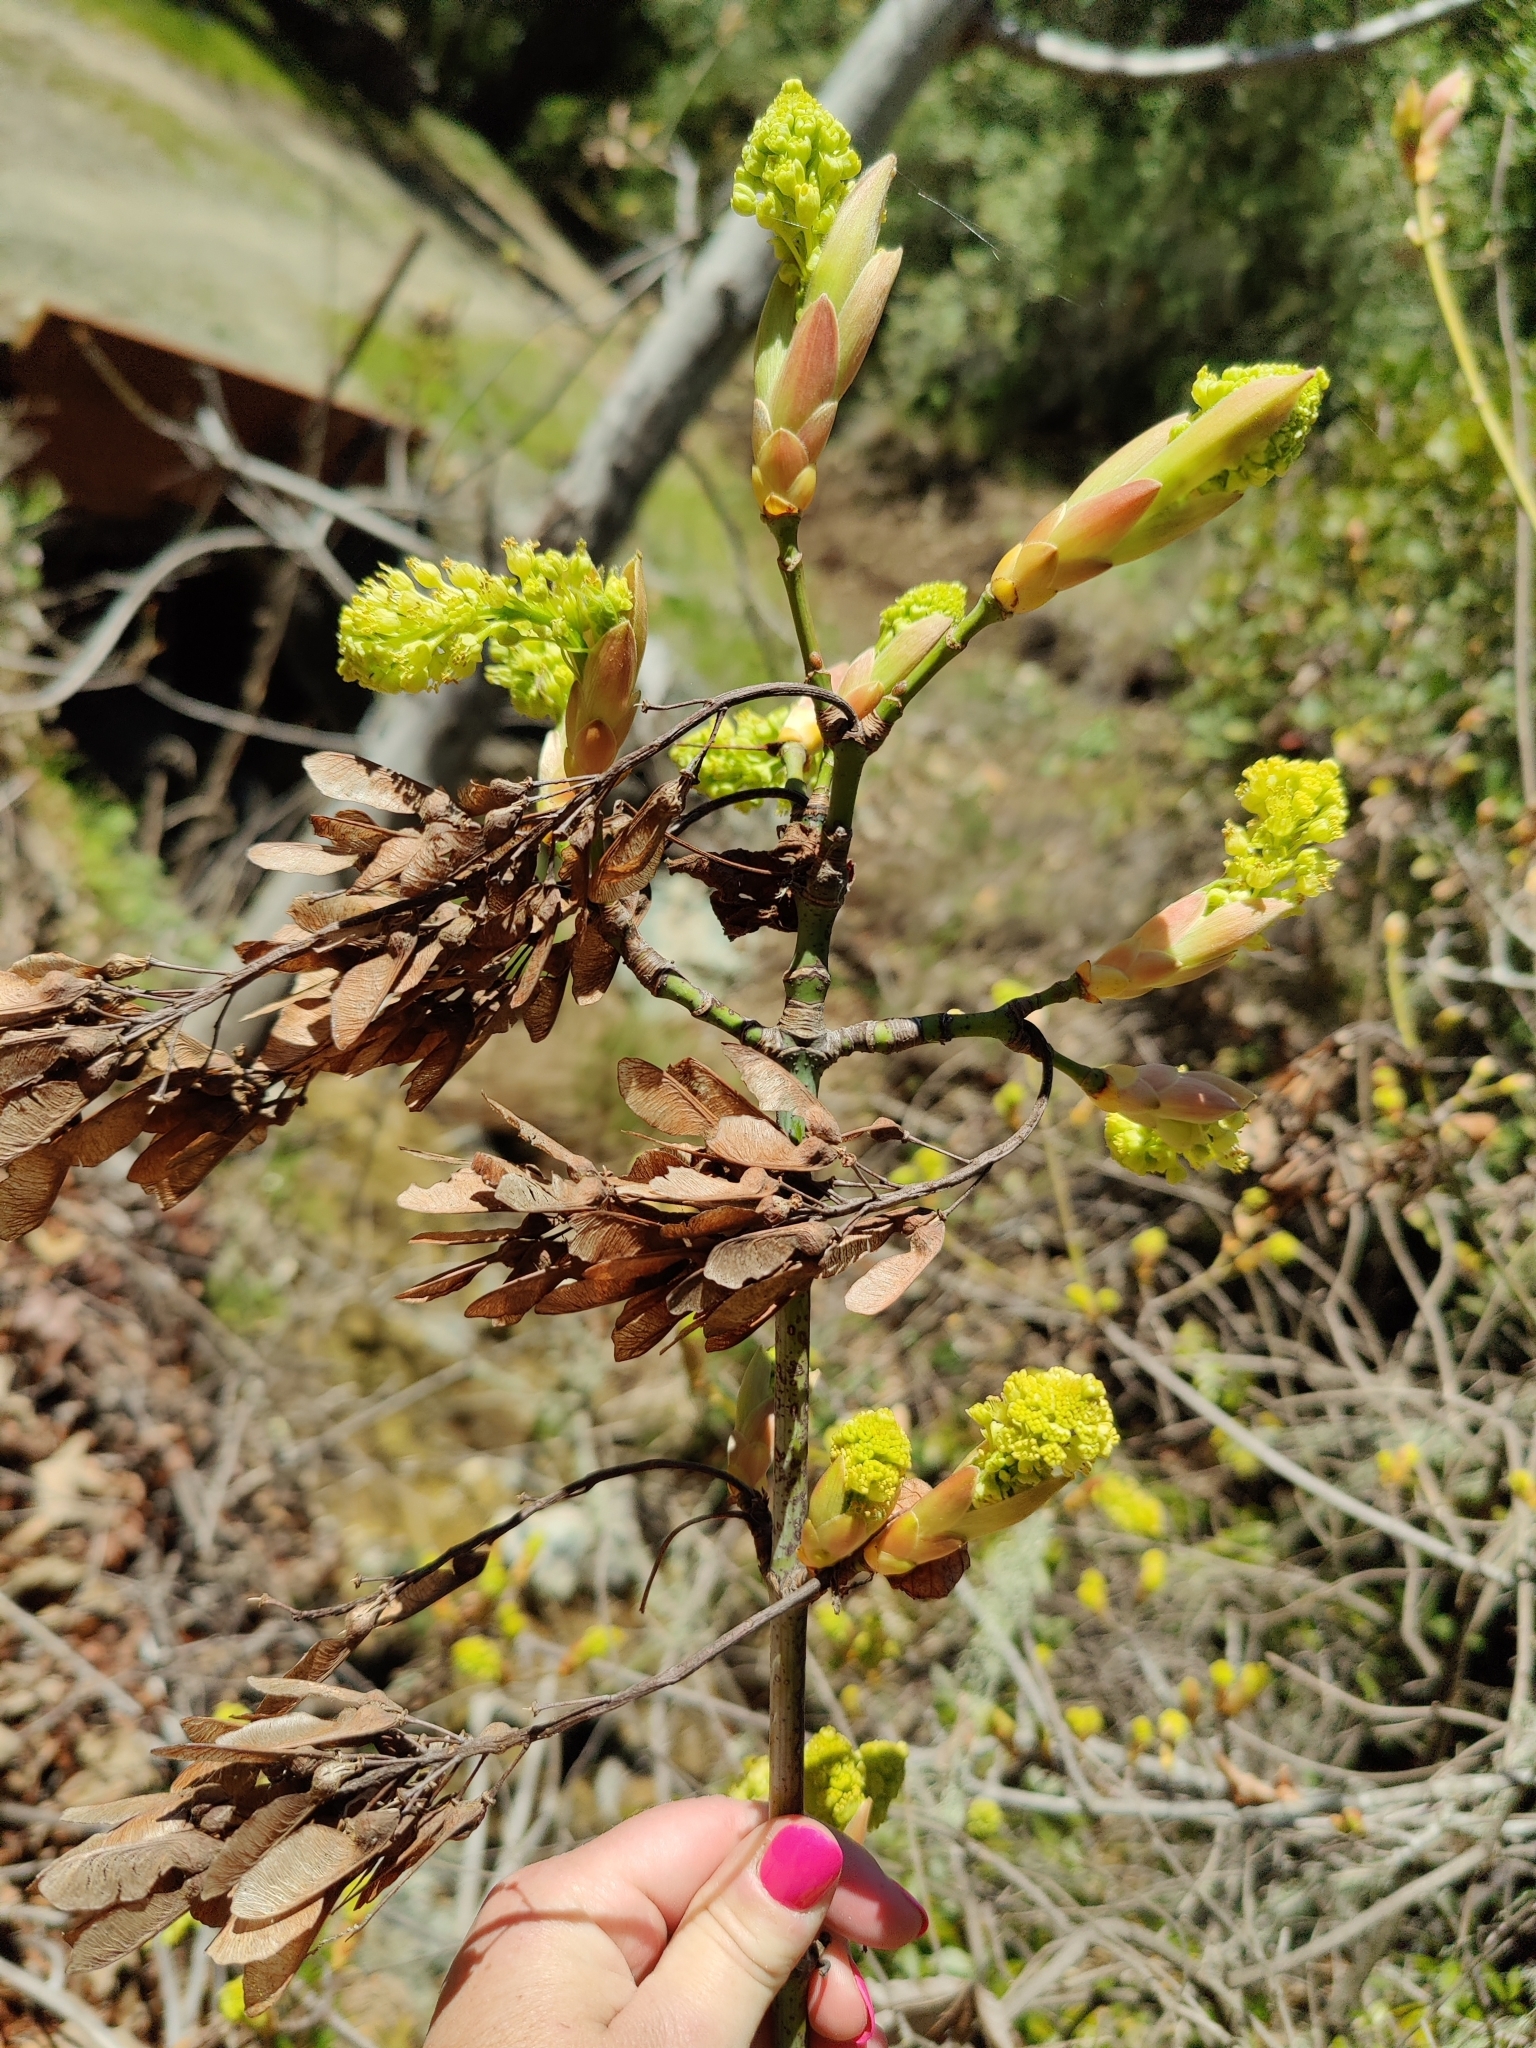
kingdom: Plantae
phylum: Tracheophyta
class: Magnoliopsida
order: Sapindales
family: Sapindaceae
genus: Acer
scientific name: Acer macrophyllum
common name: Oregon maple
